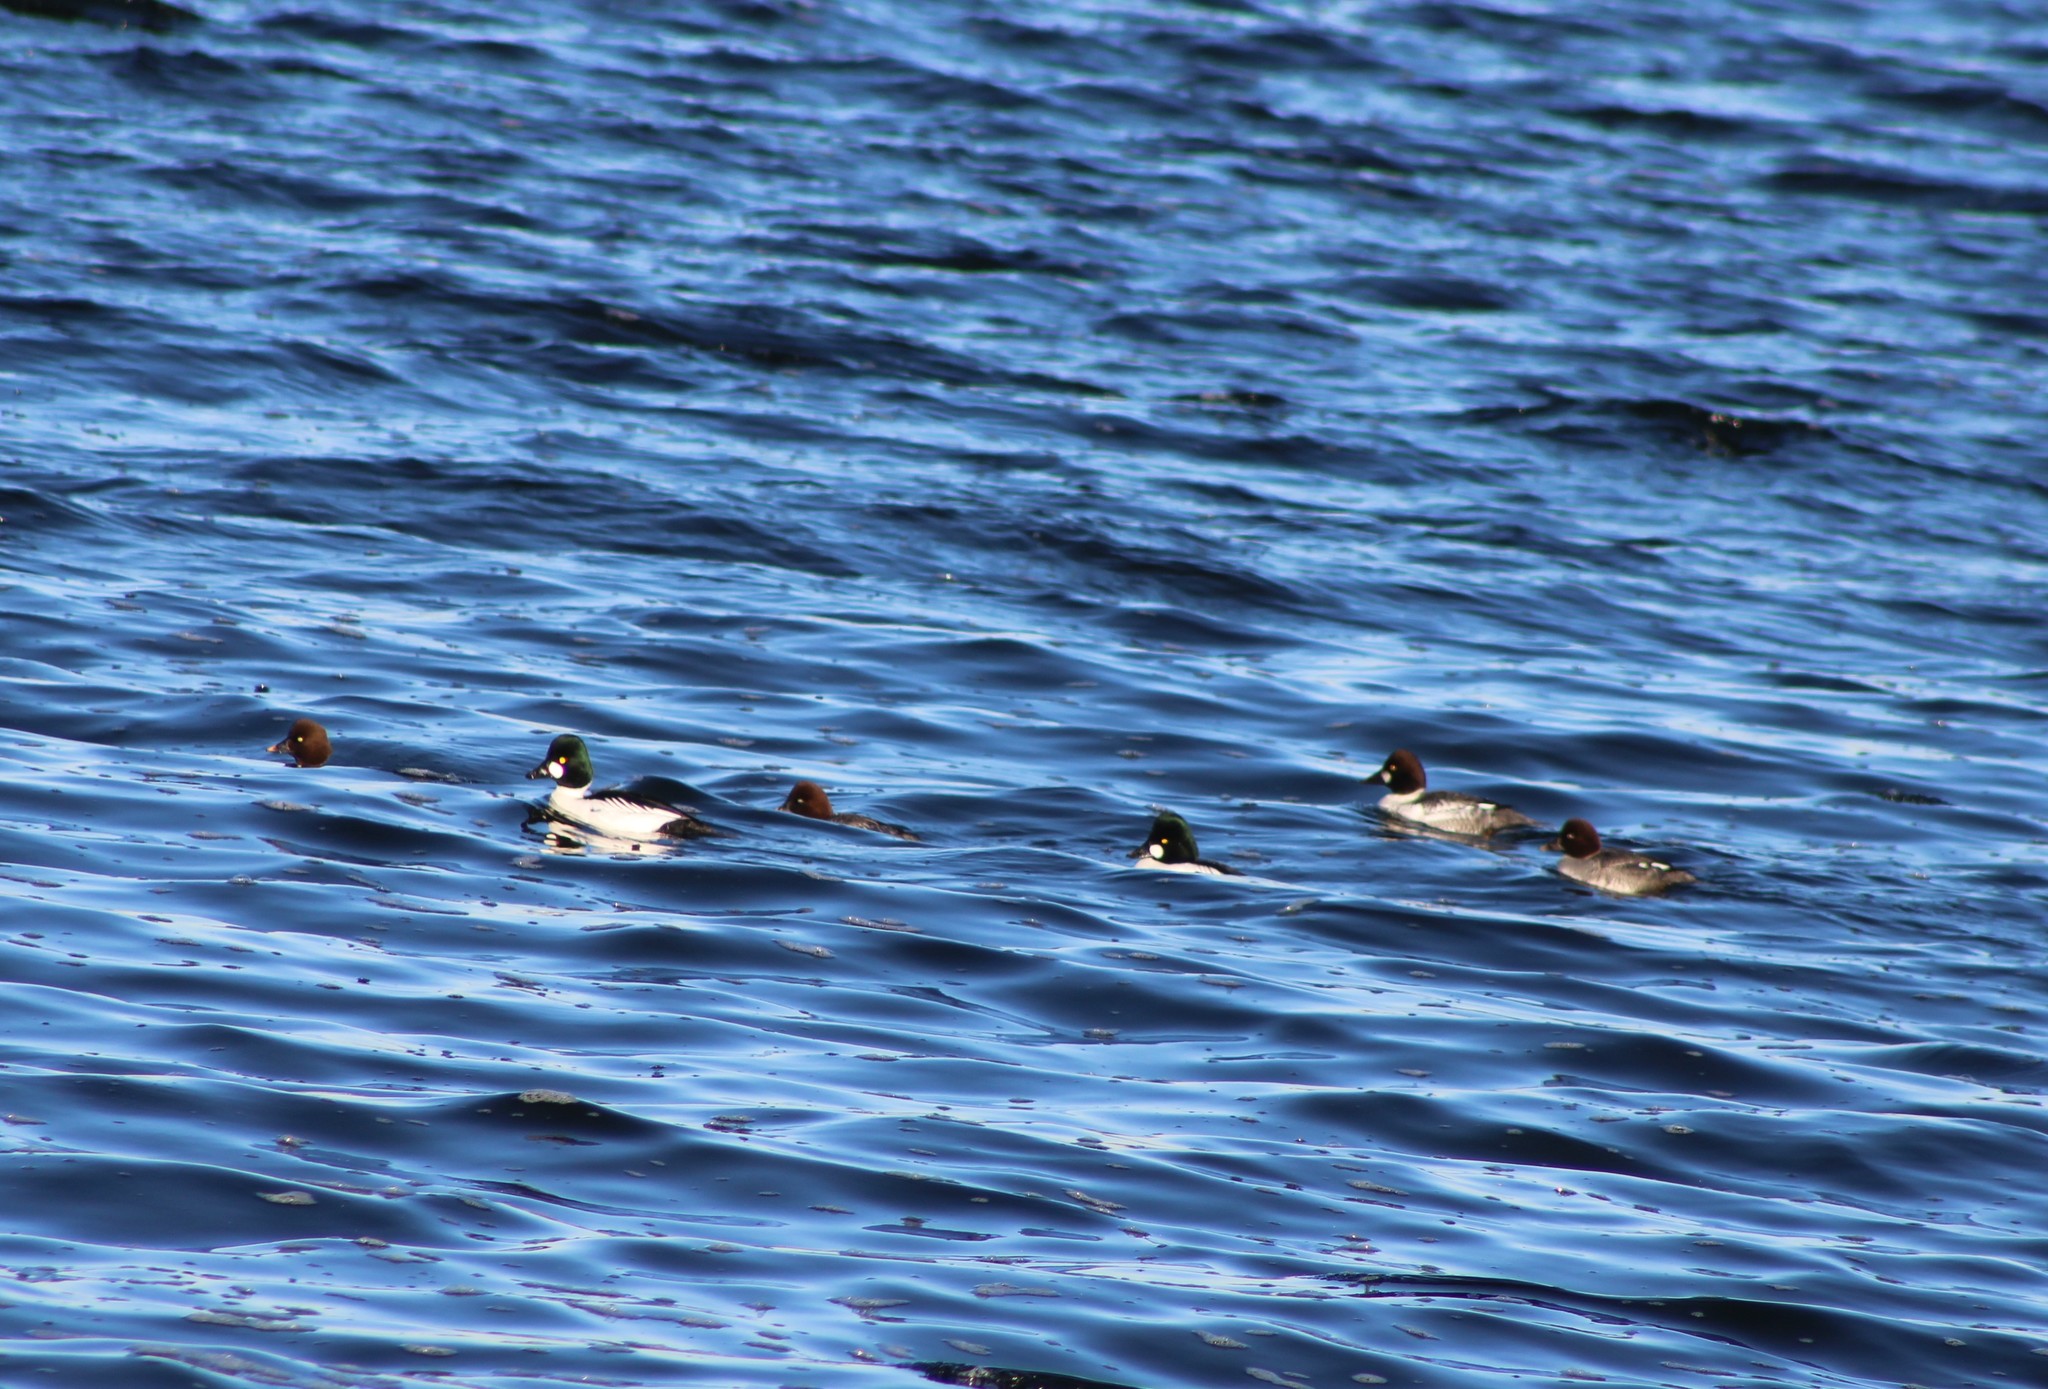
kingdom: Animalia
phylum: Chordata
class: Aves
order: Anseriformes
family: Anatidae
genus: Bucephala
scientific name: Bucephala clangula
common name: Common goldeneye
